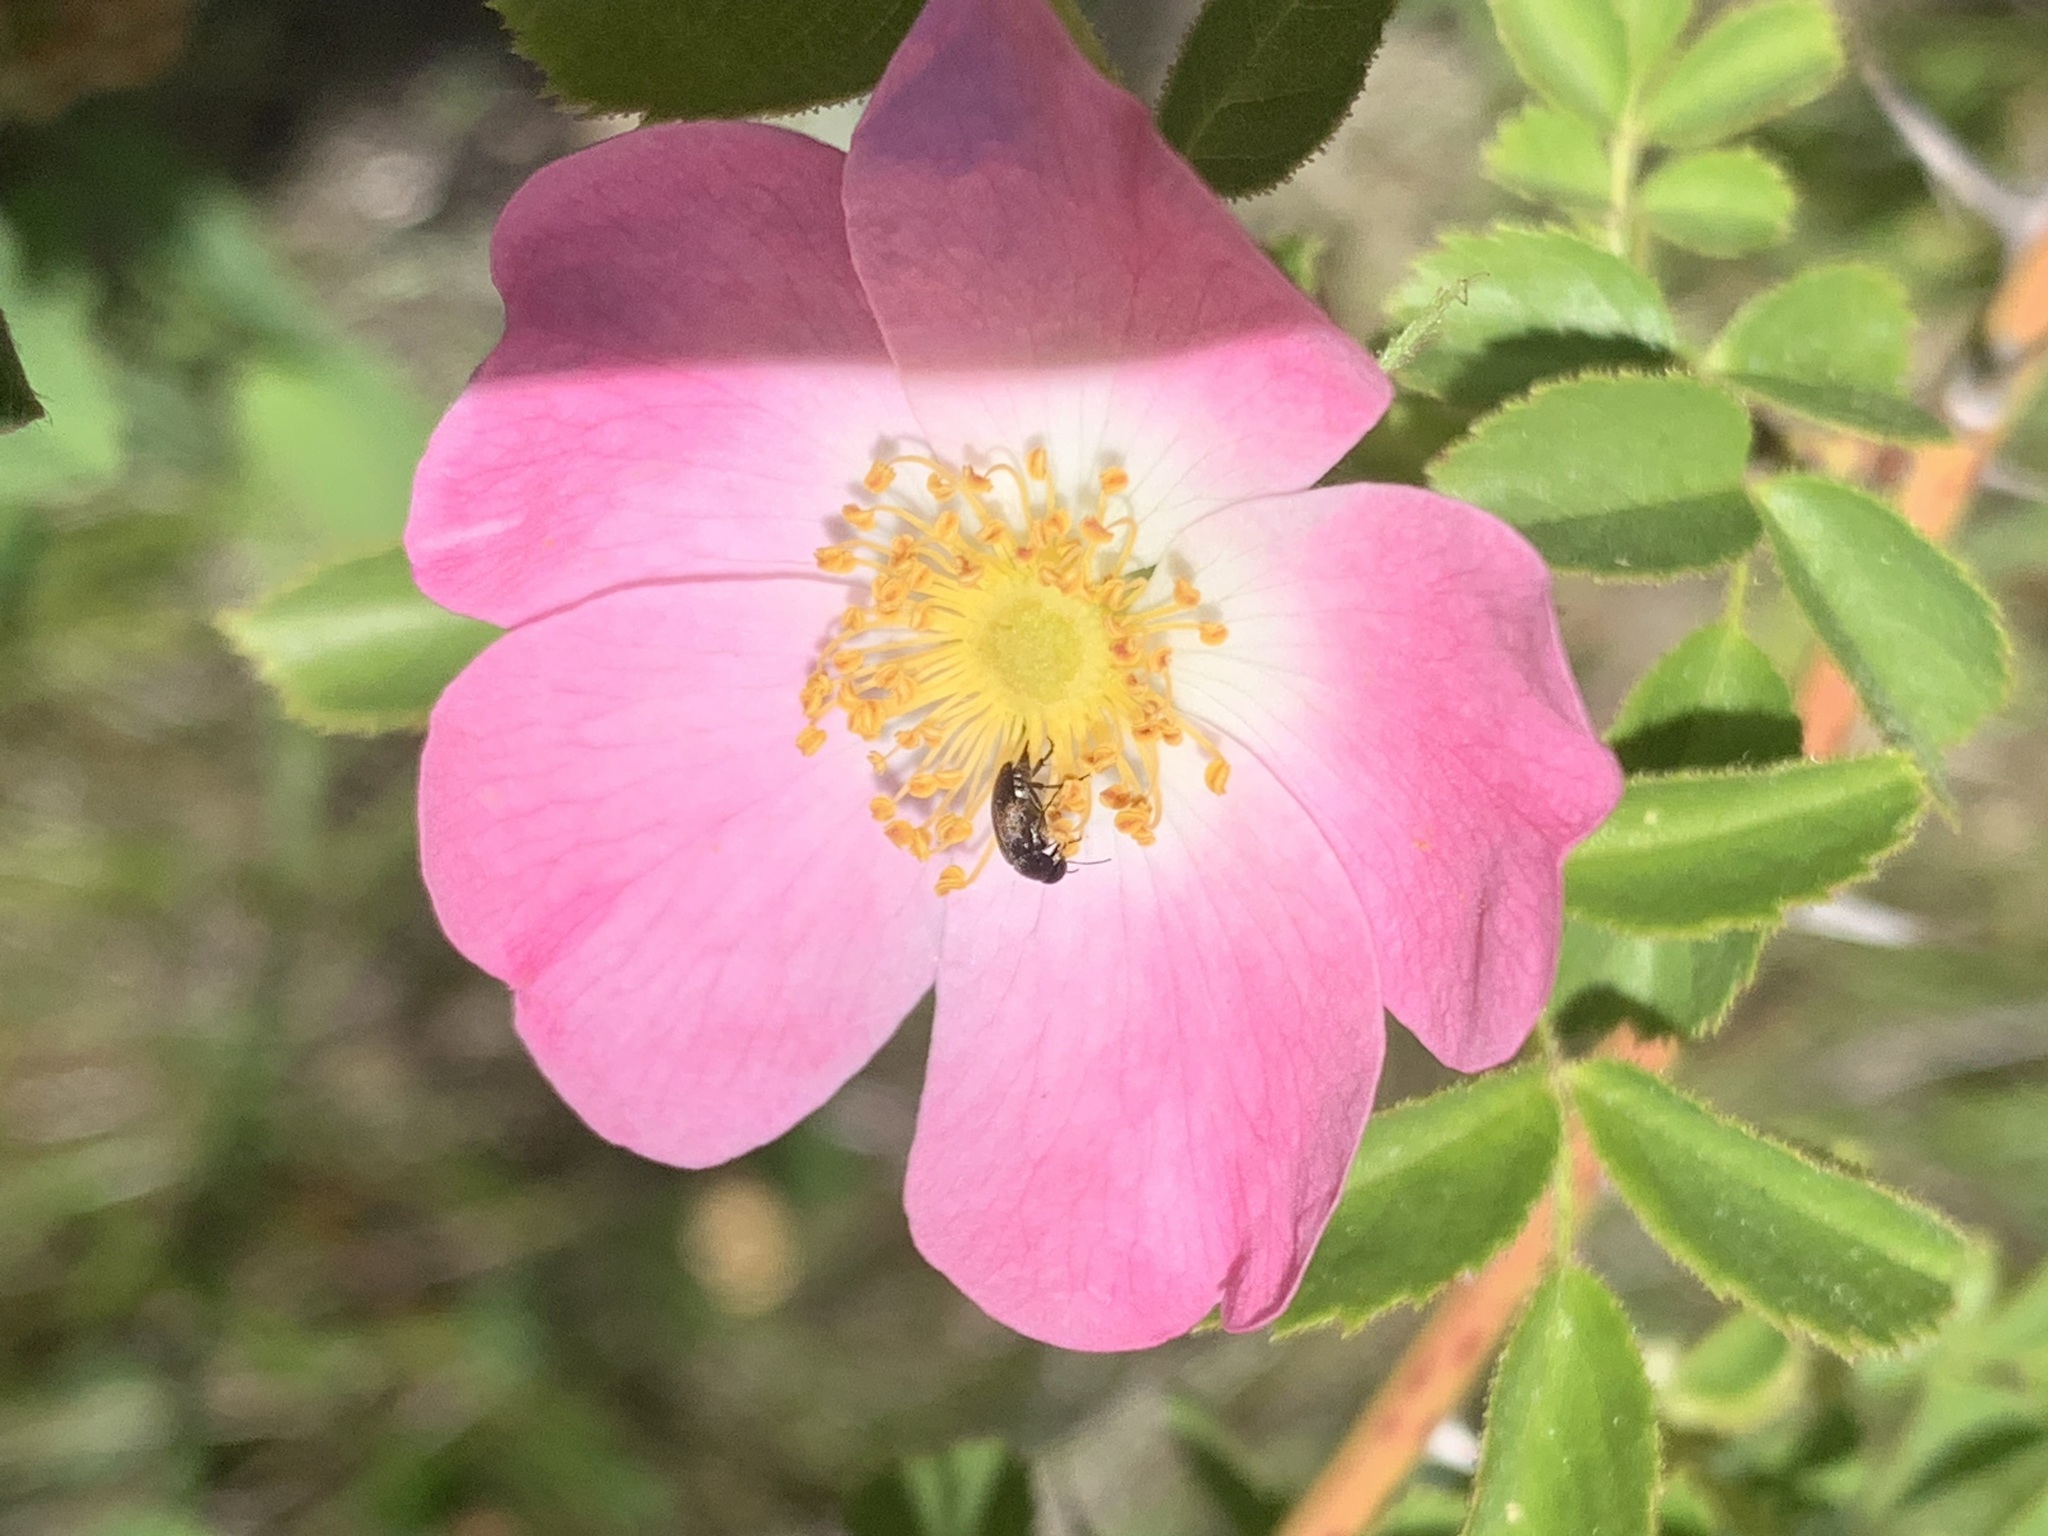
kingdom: Plantae
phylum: Tracheophyta
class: Magnoliopsida
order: Rosales
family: Rosaceae
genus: Rosa
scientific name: Rosa rubiginosa
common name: Sweet-briar
